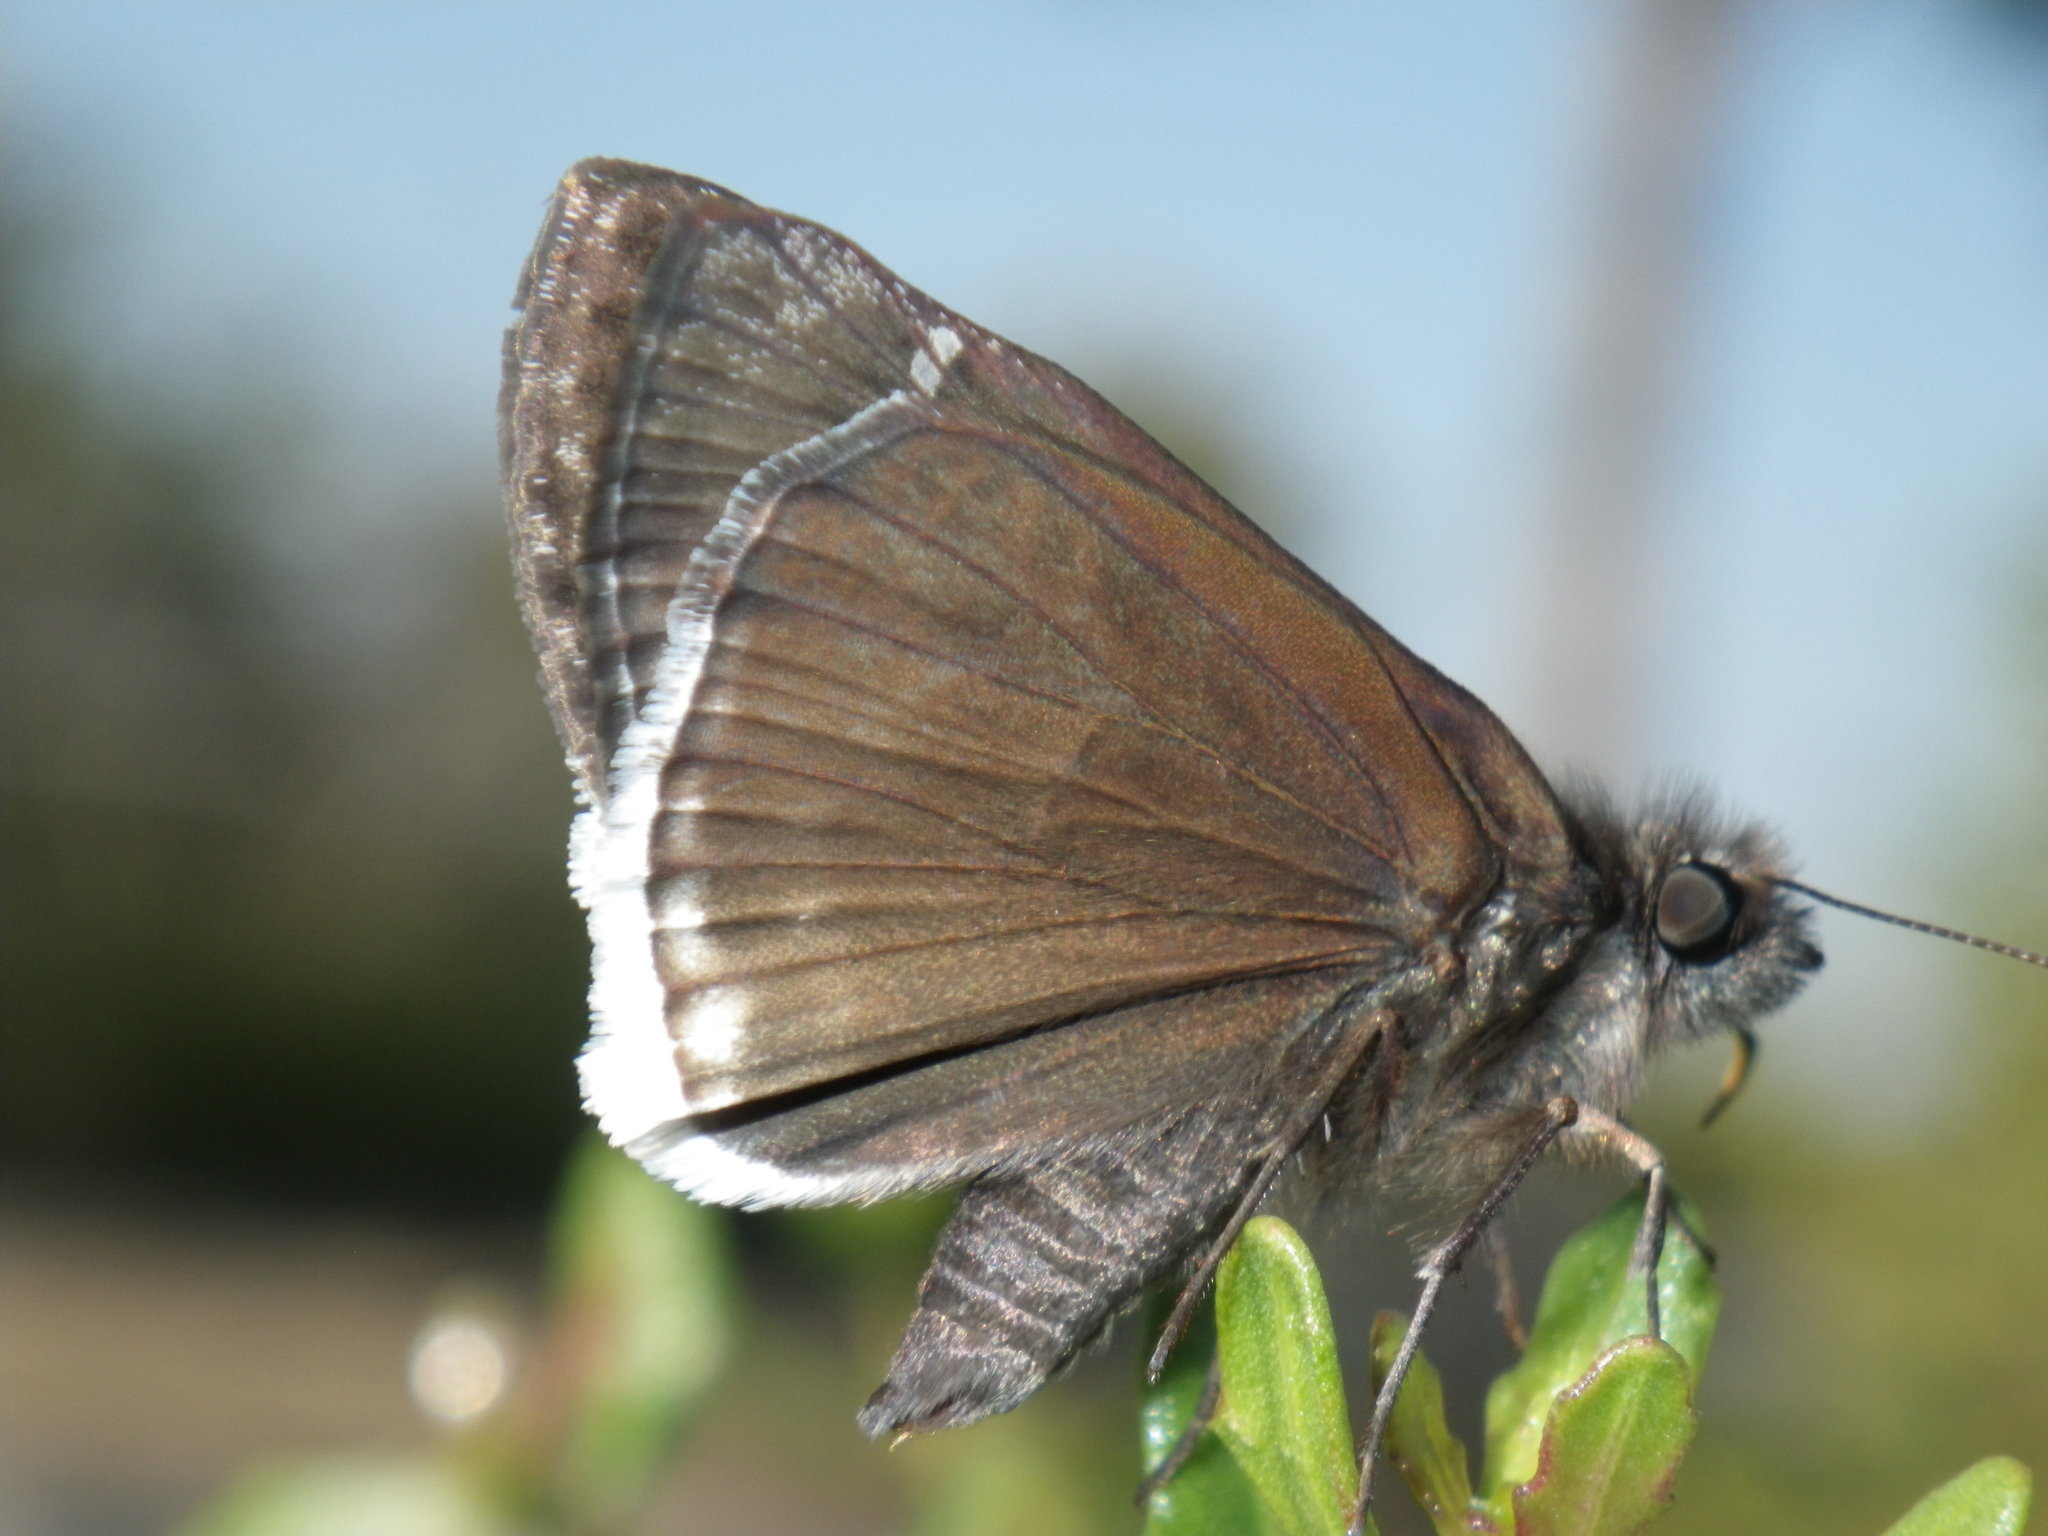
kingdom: Animalia
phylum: Arthropoda
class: Insecta
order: Lepidoptera
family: Hesperiidae
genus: Erynnis
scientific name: Erynnis tristis
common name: Mournful duskywing
